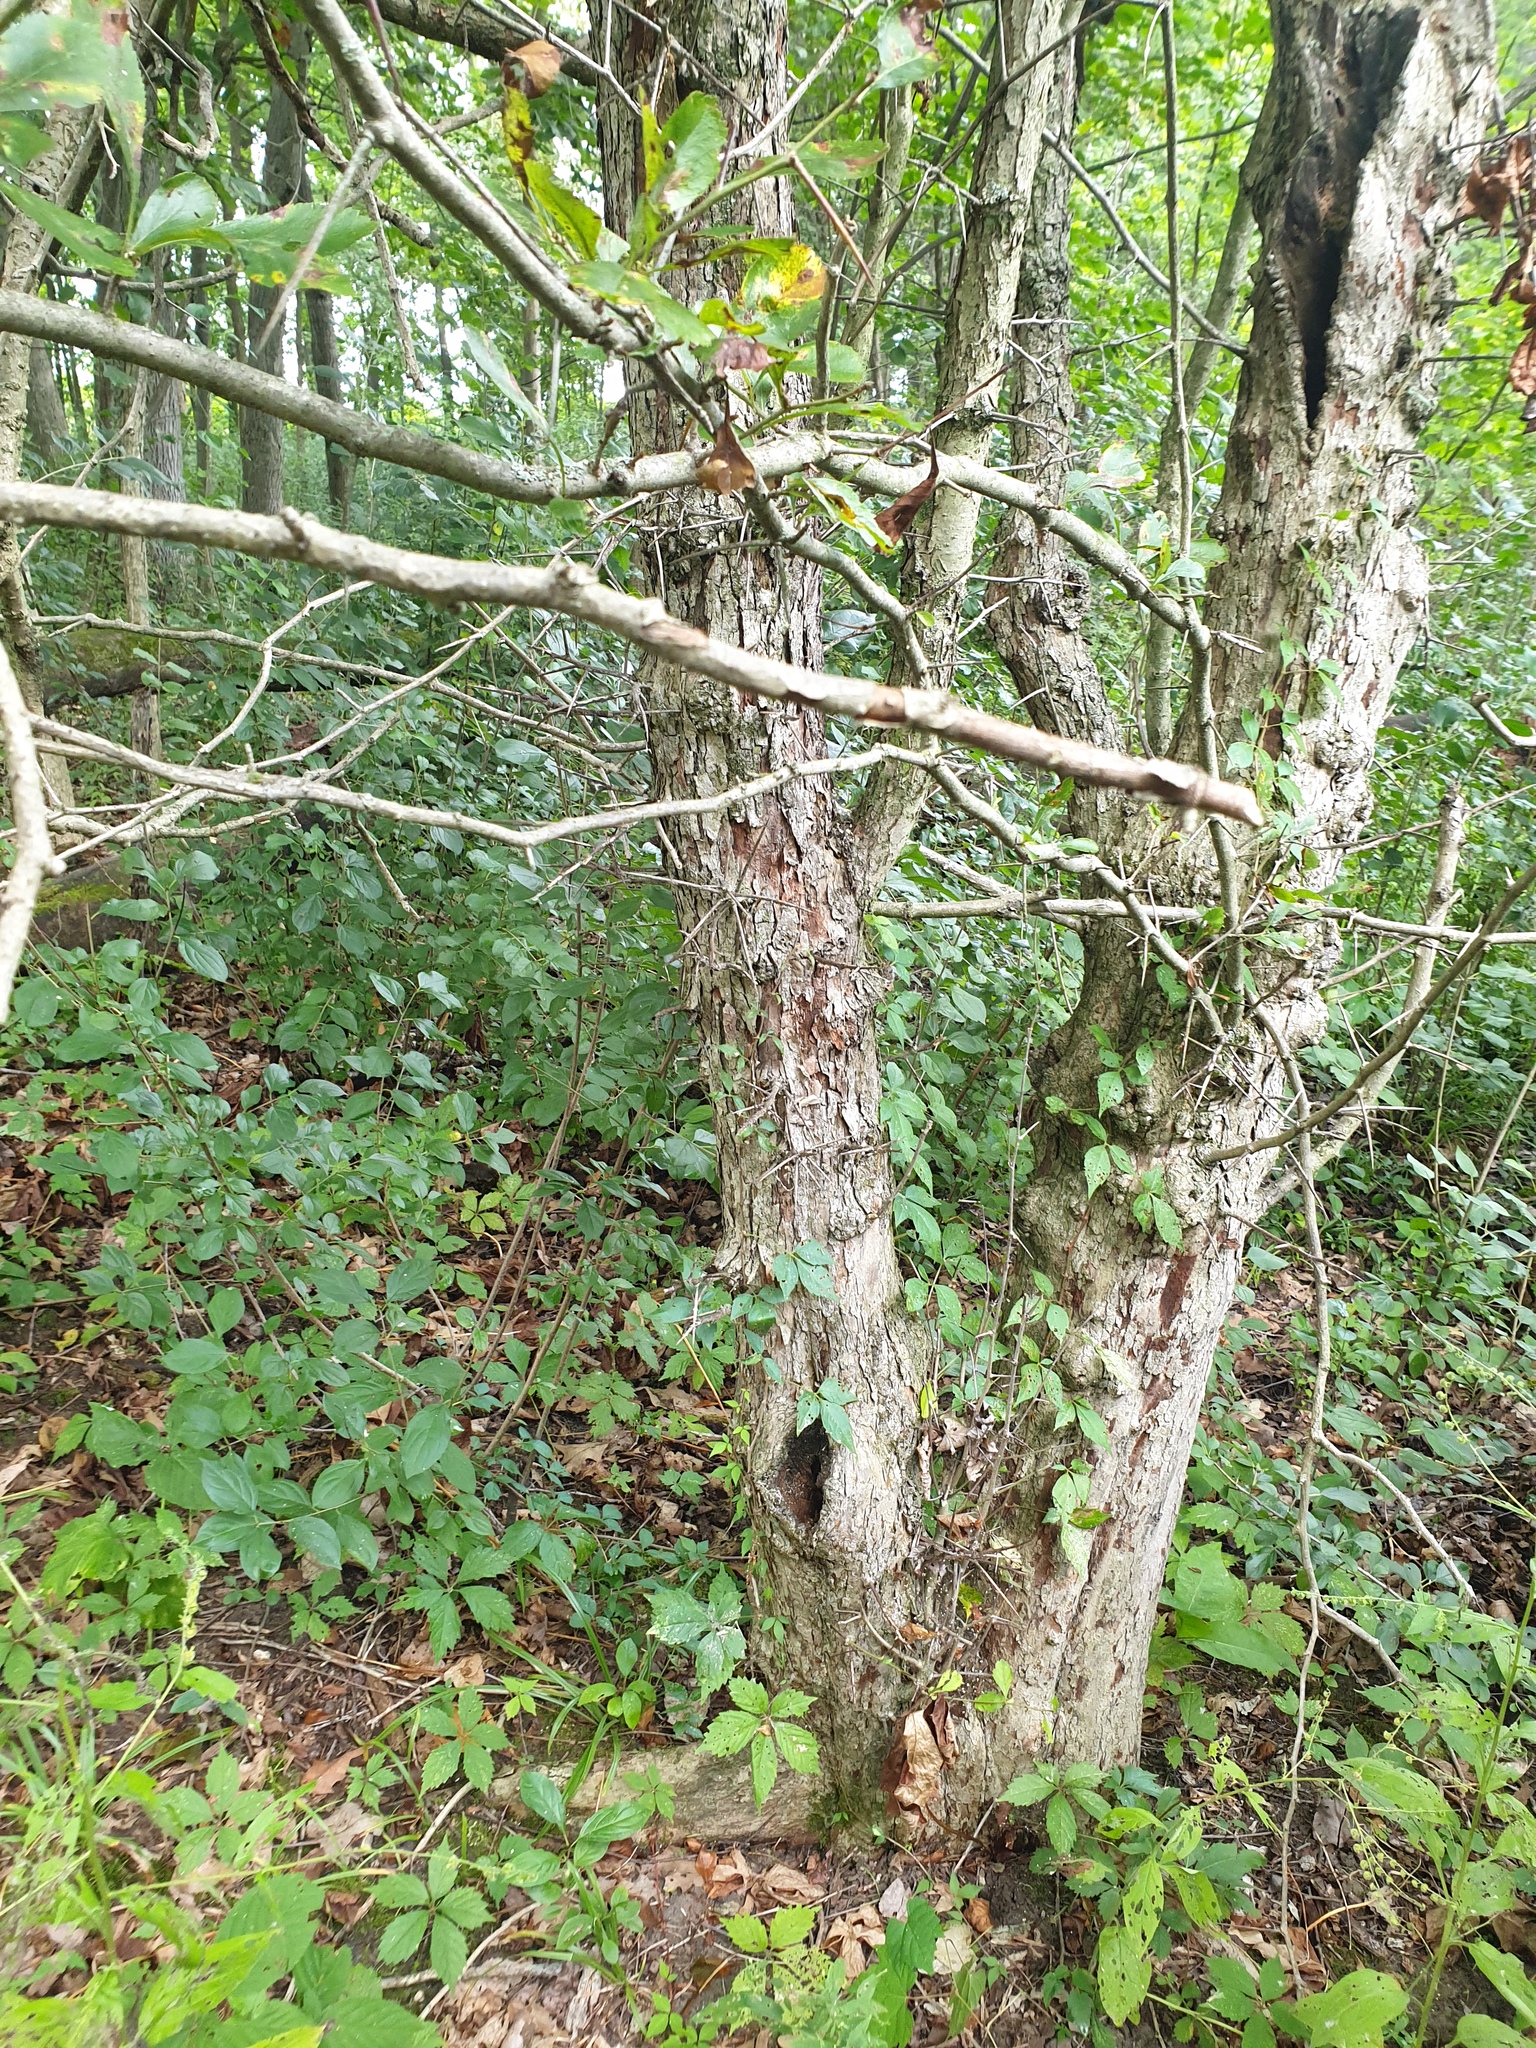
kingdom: Plantae
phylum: Tracheophyta
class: Magnoliopsida
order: Rosales
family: Rosaceae
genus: Crataegus
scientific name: Crataegus crus-galli
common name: Cockspurthorn
